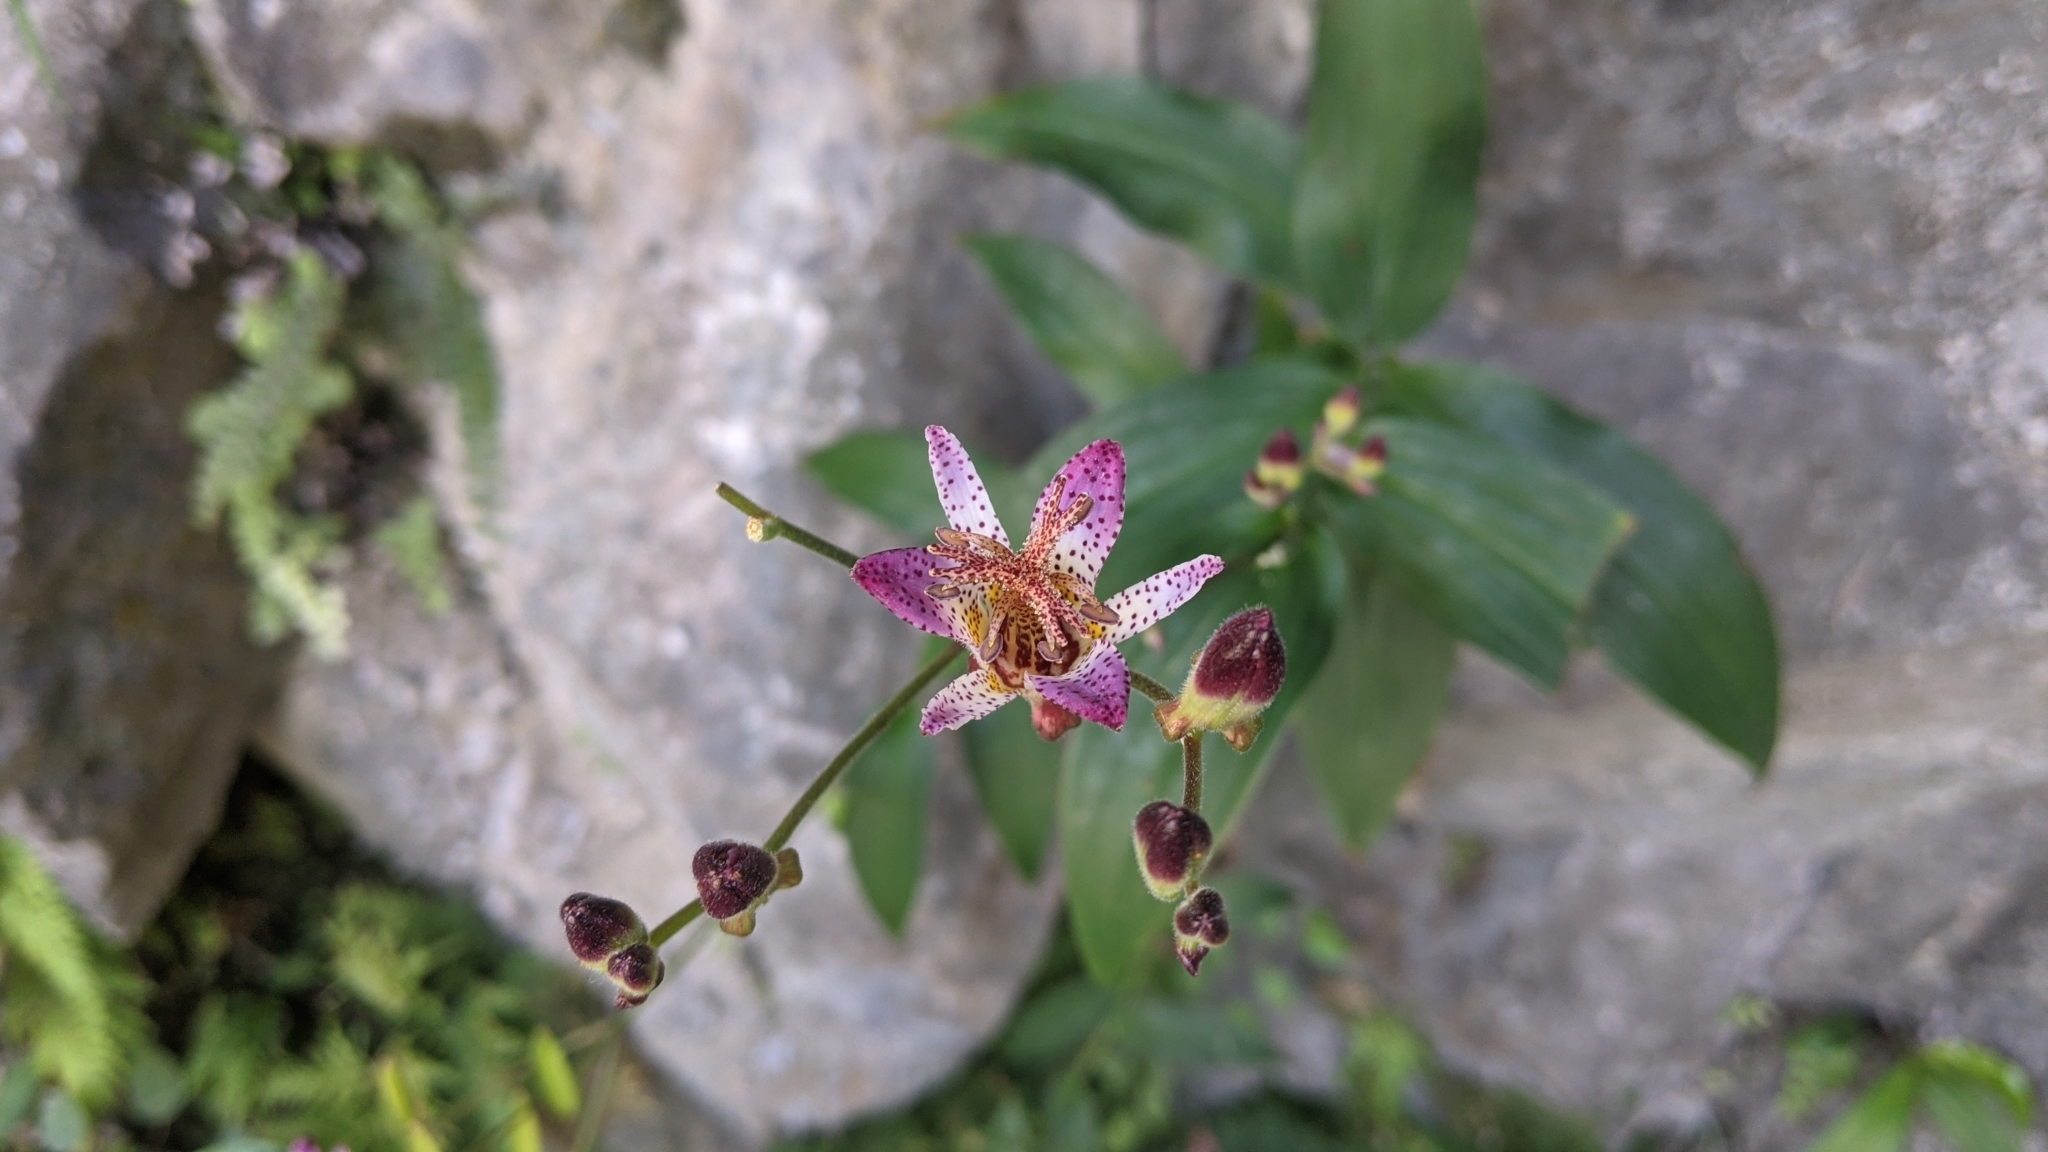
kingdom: Plantae
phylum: Tracheophyta
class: Liliopsida
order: Liliales
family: Liliaceae
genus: Tricyrtis
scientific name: Tricyrtis formosana
